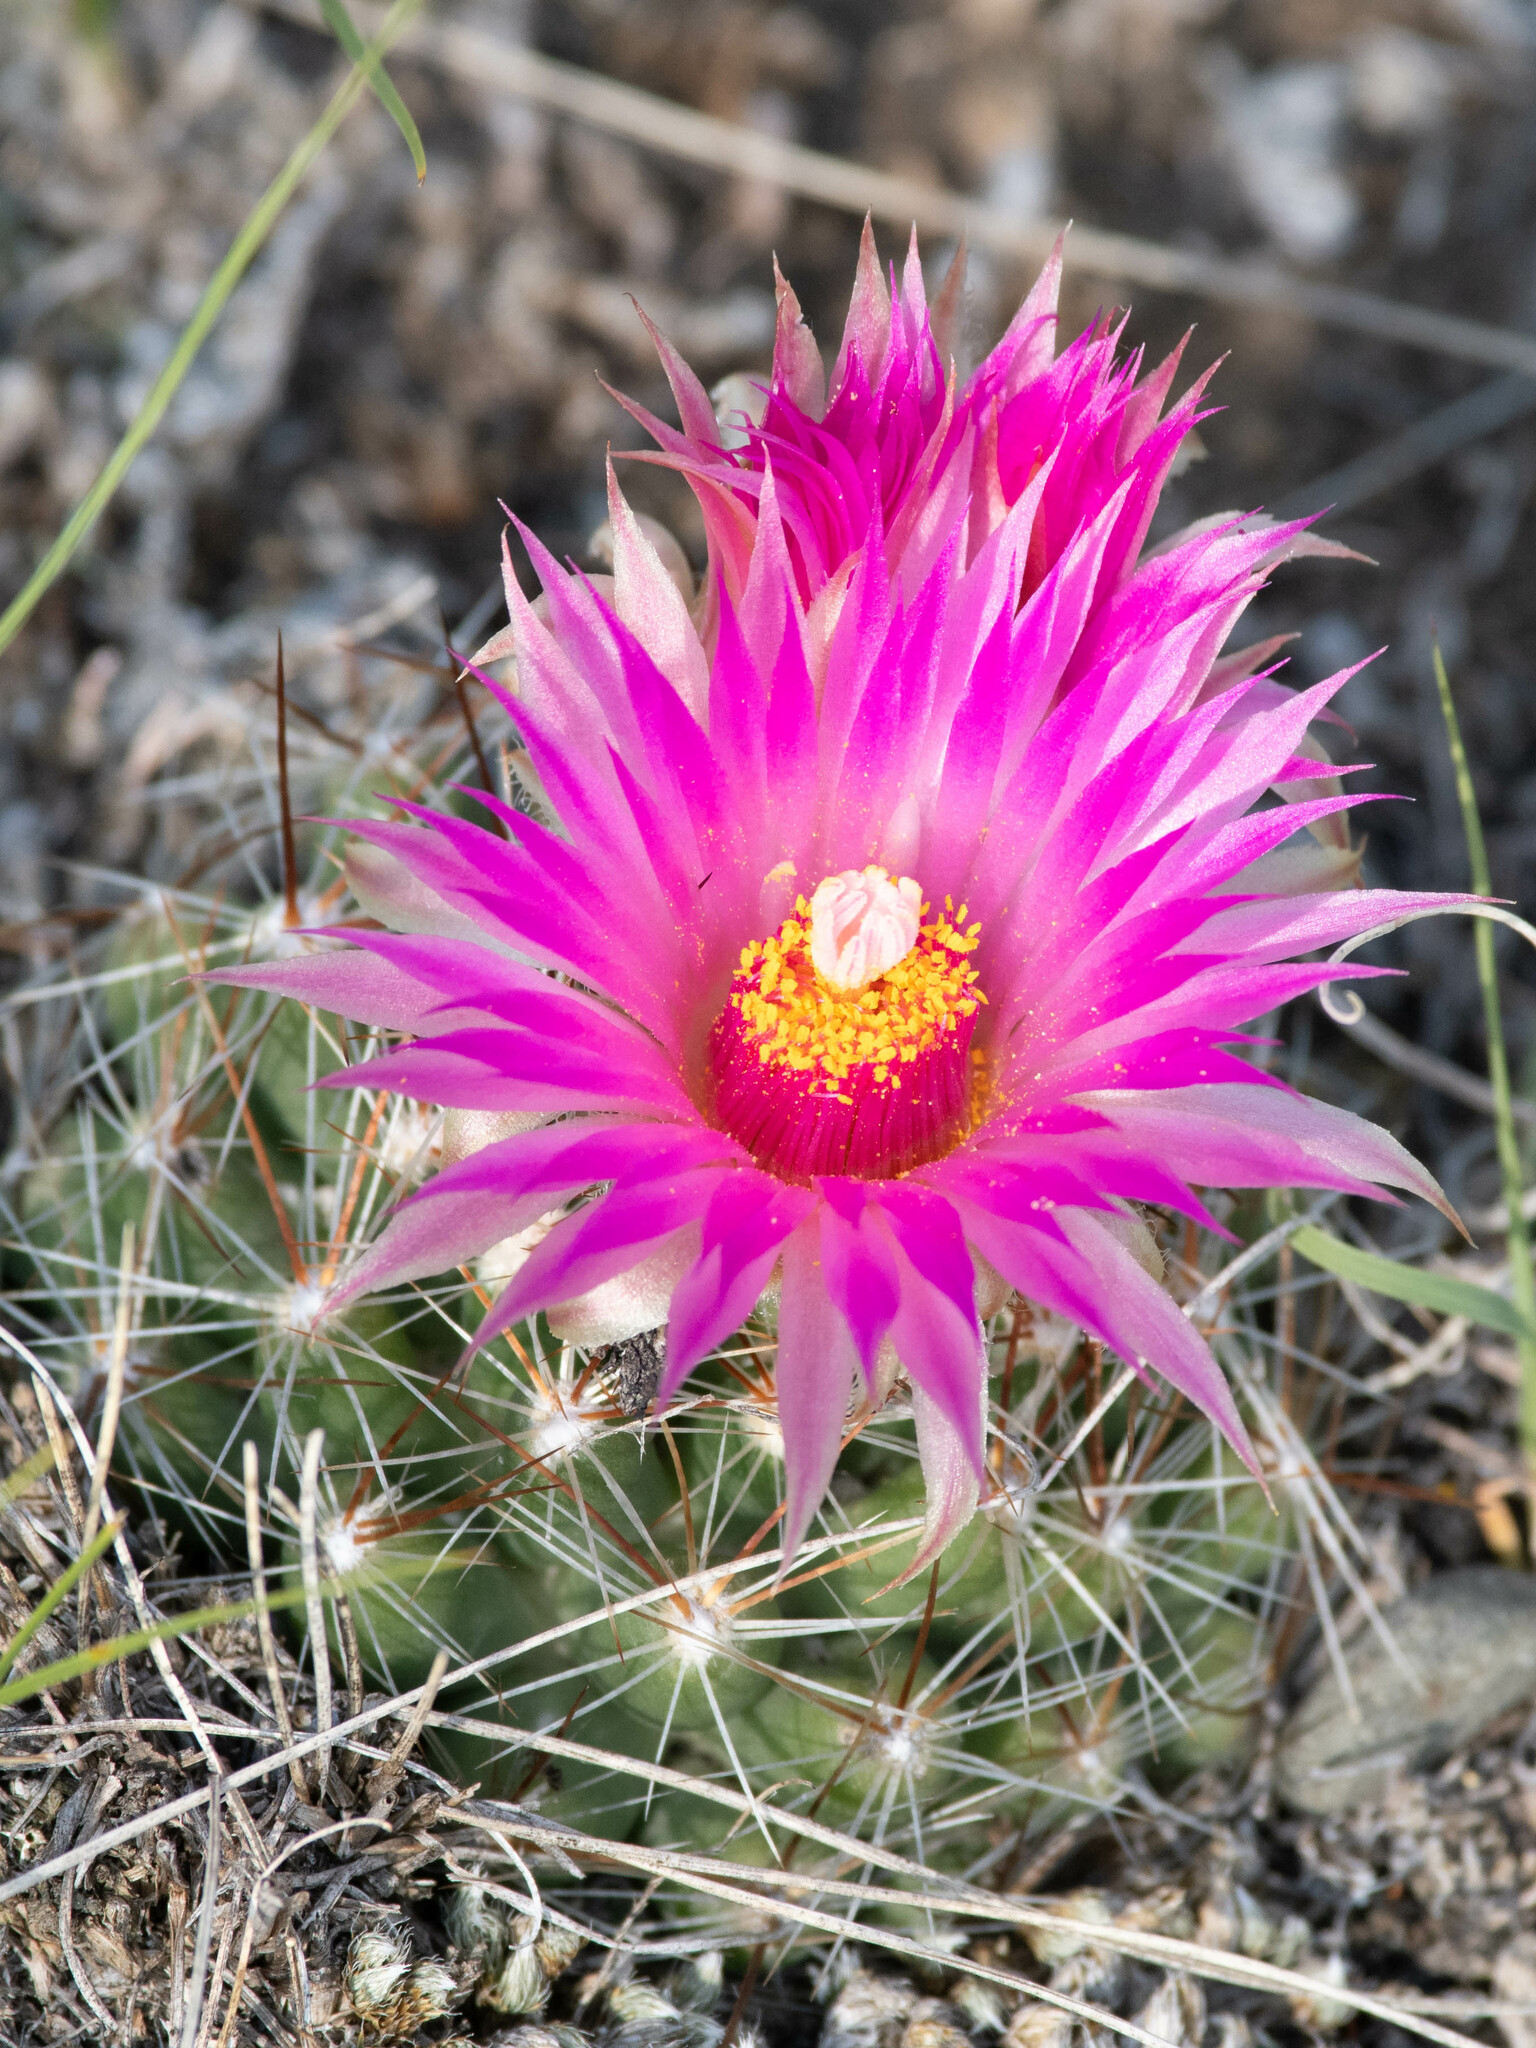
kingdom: Plantae
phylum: Tracheophyta
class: Magnoliopsida
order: Caryophyllales
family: Cactaceae
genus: Pelecyphora
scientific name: Pelecyphora vivipara
